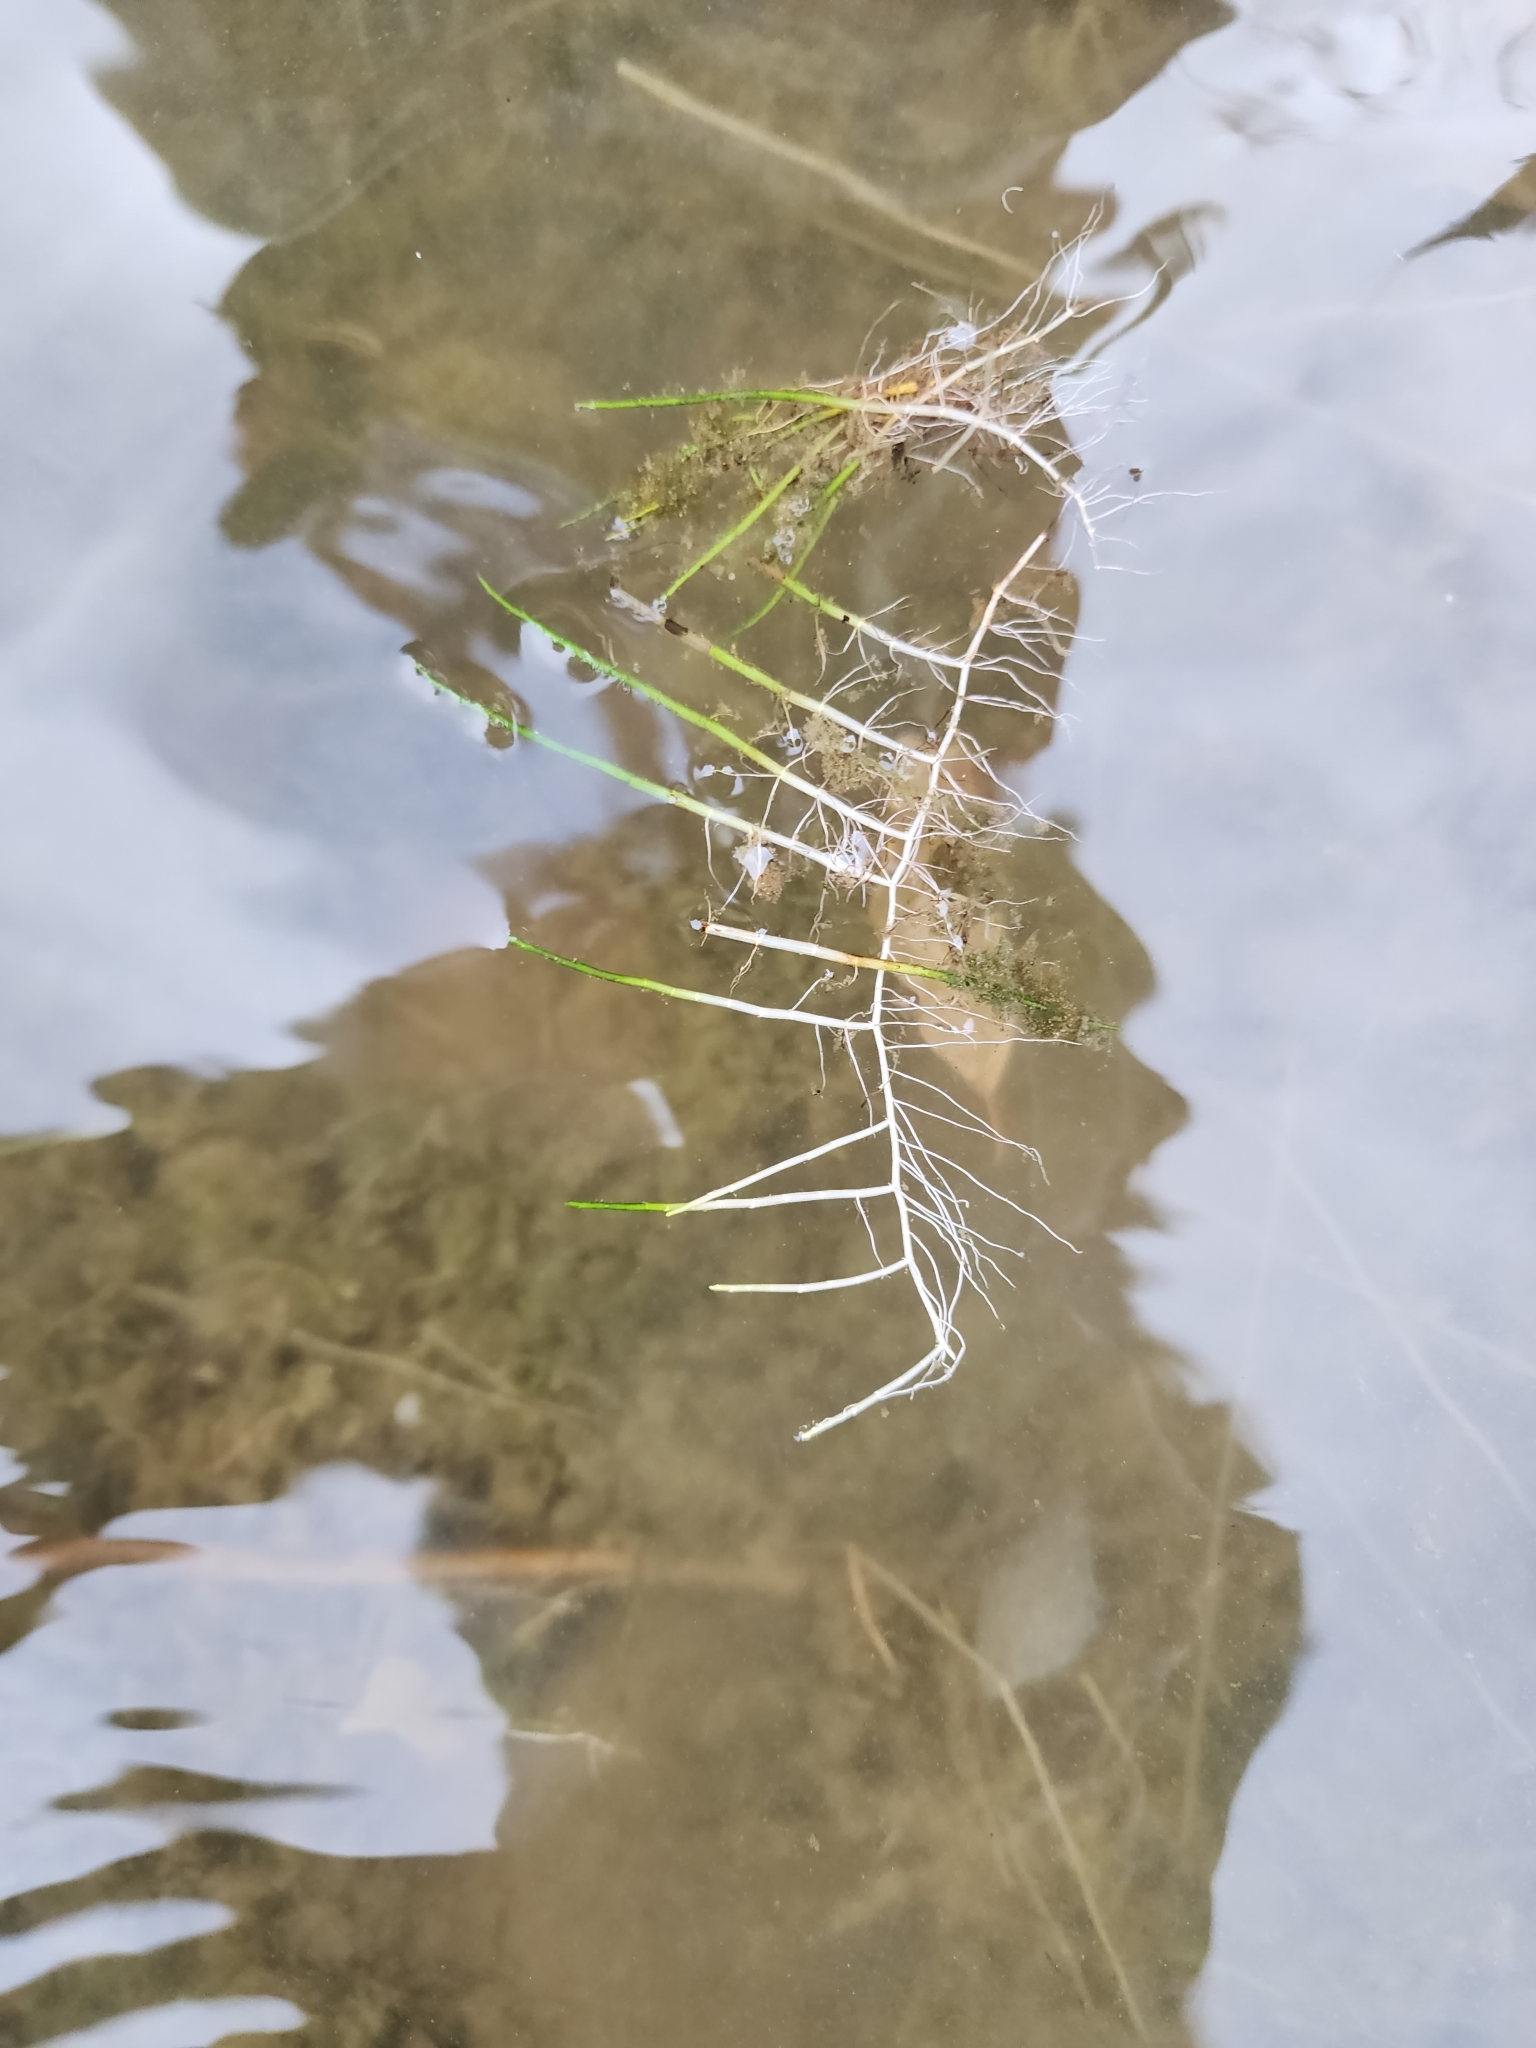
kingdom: Plantae
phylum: Tracheophyta
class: Magnoliopsida
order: Saxifragales
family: Haloragaceae
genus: Myriophyllum
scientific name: Myriophyllum tenellum
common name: Slender water-milfoil
